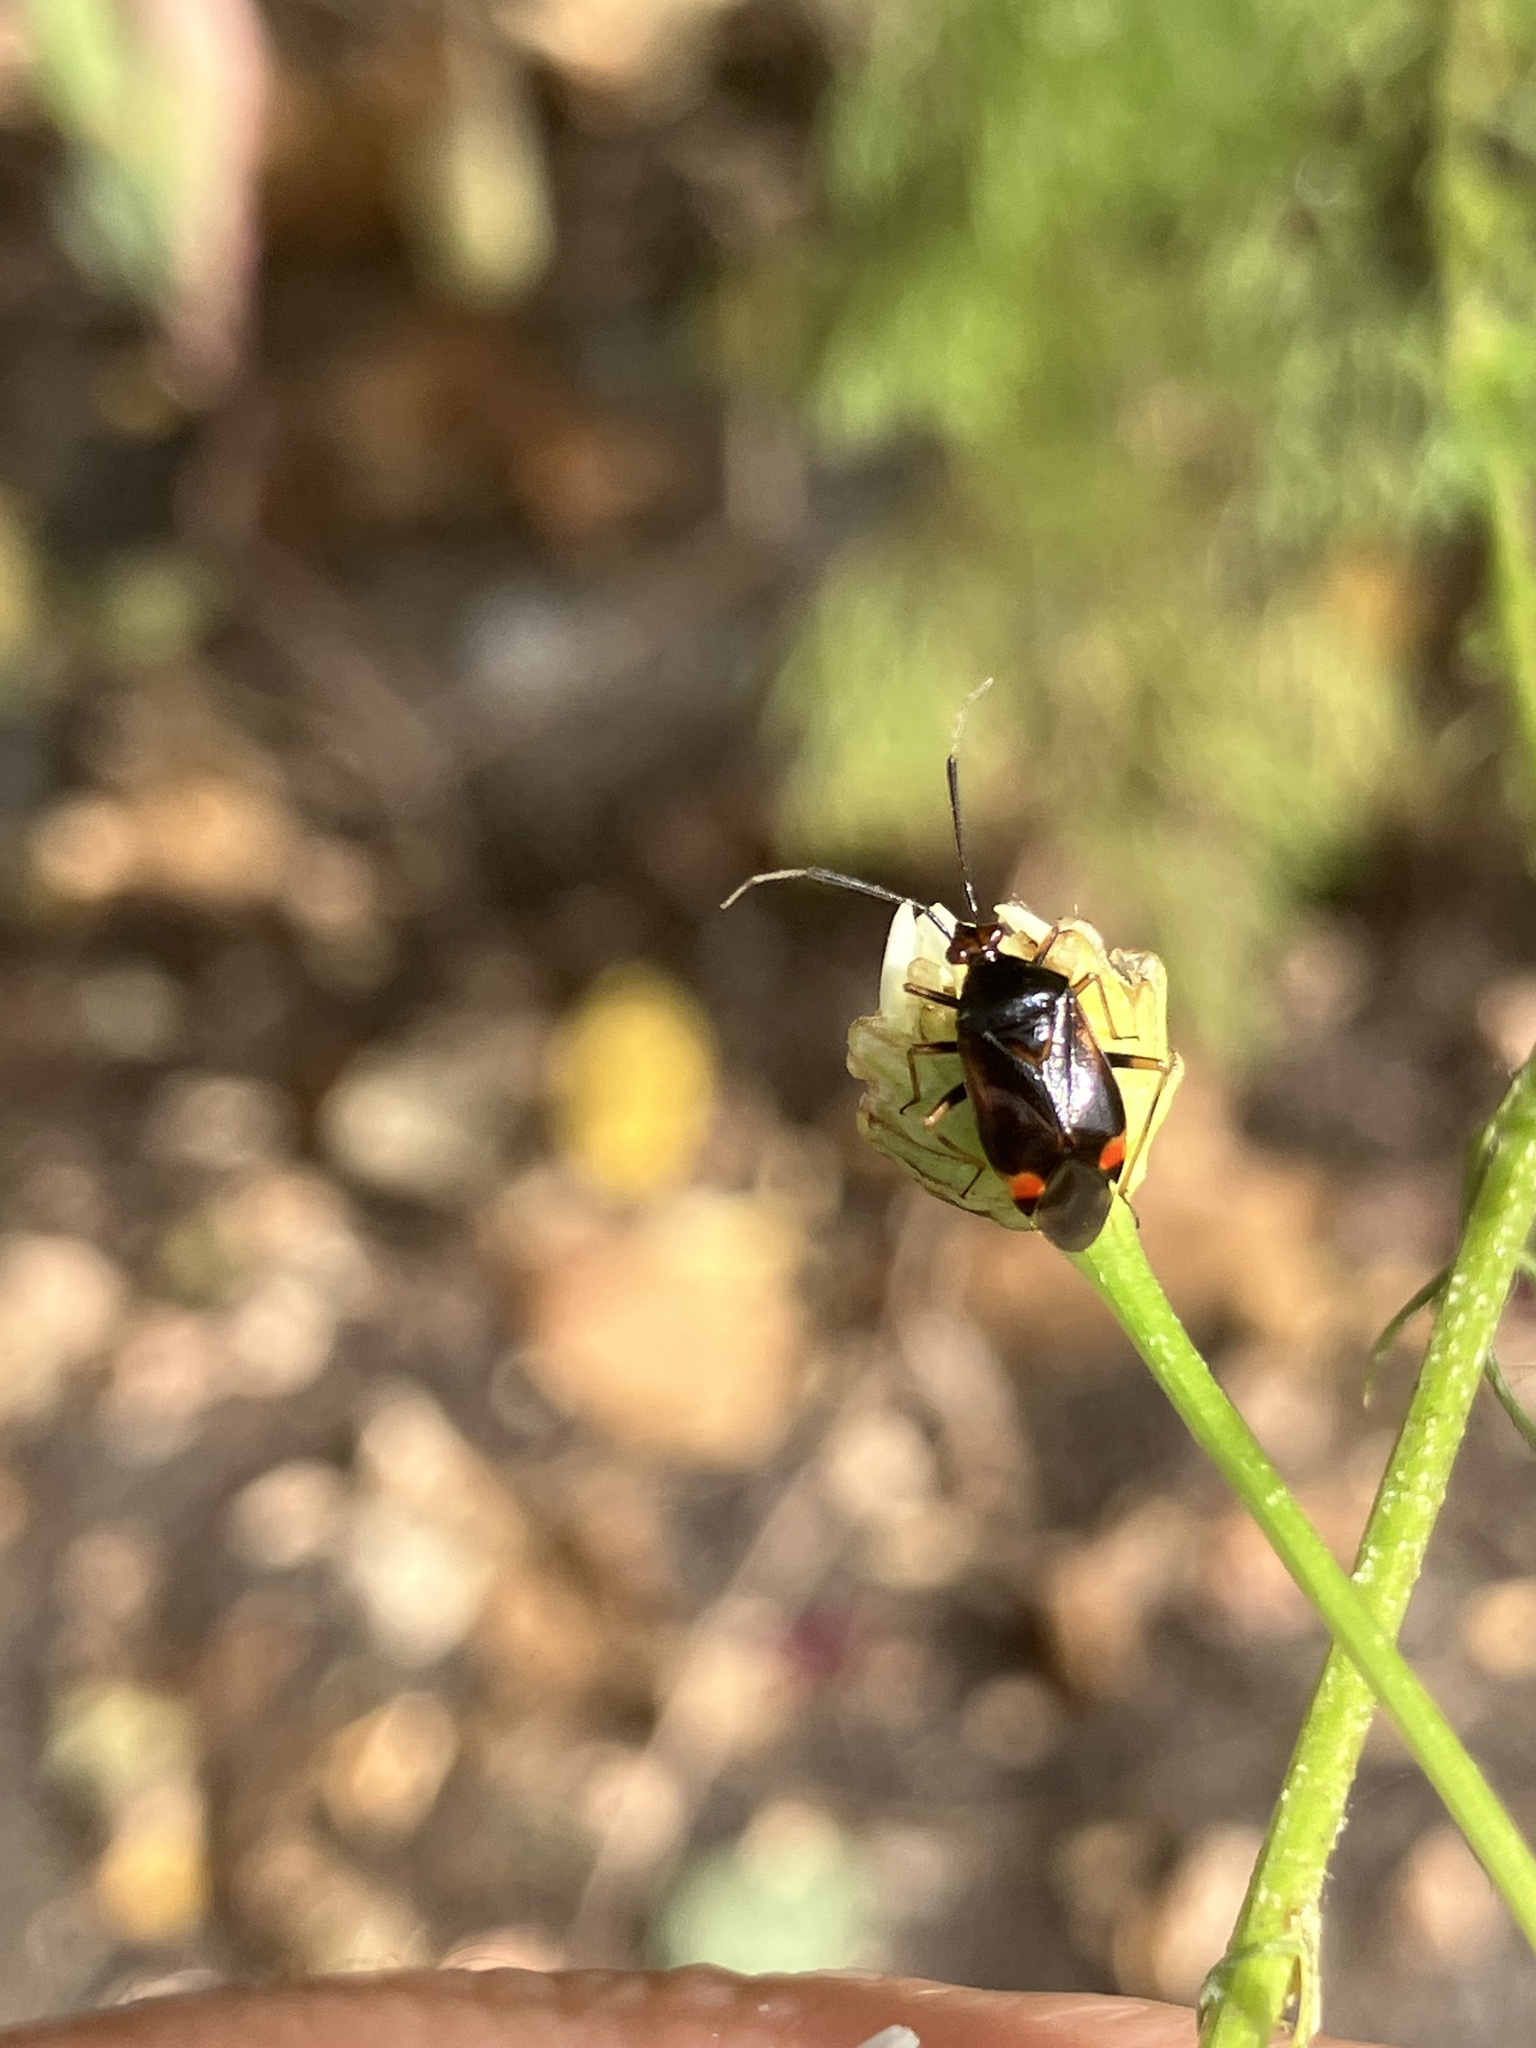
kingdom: Animalia
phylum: Arthropoda
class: Insecta
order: Hemiptera
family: Miridae
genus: Deraeocoris
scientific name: Deraeocoris ruber
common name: Plant bug
